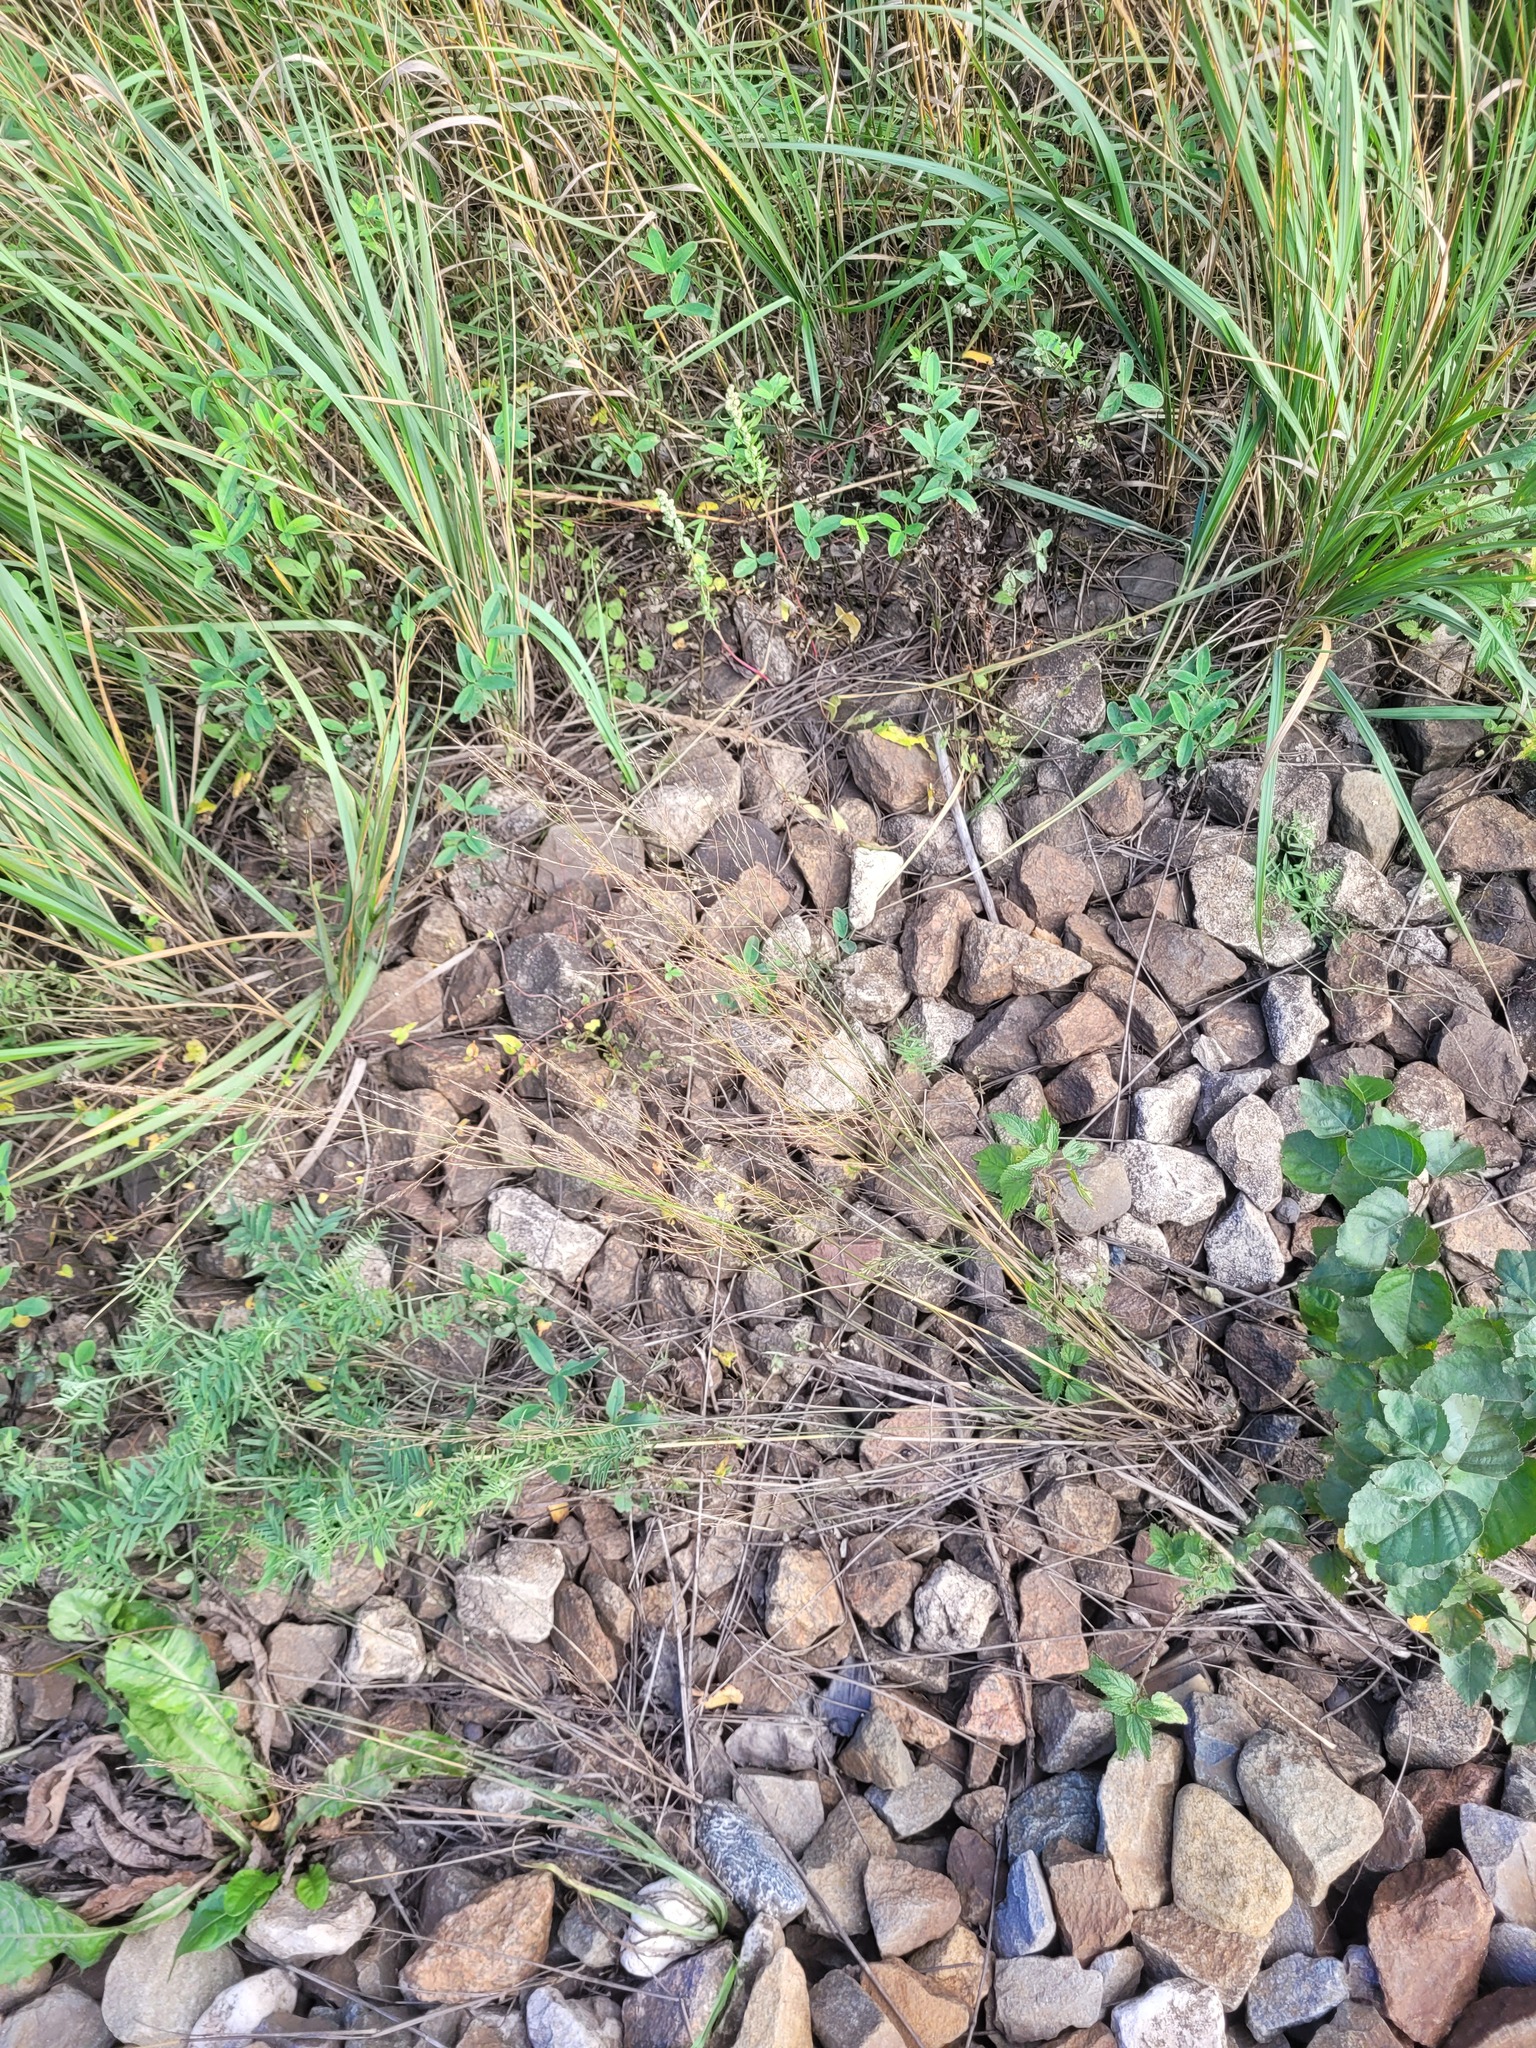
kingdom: Plantae
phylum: Tracheophyta
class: Liliopsida
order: Poales
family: Poaceae
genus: Poa
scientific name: Poa palustris
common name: Swamp meadow-grass
